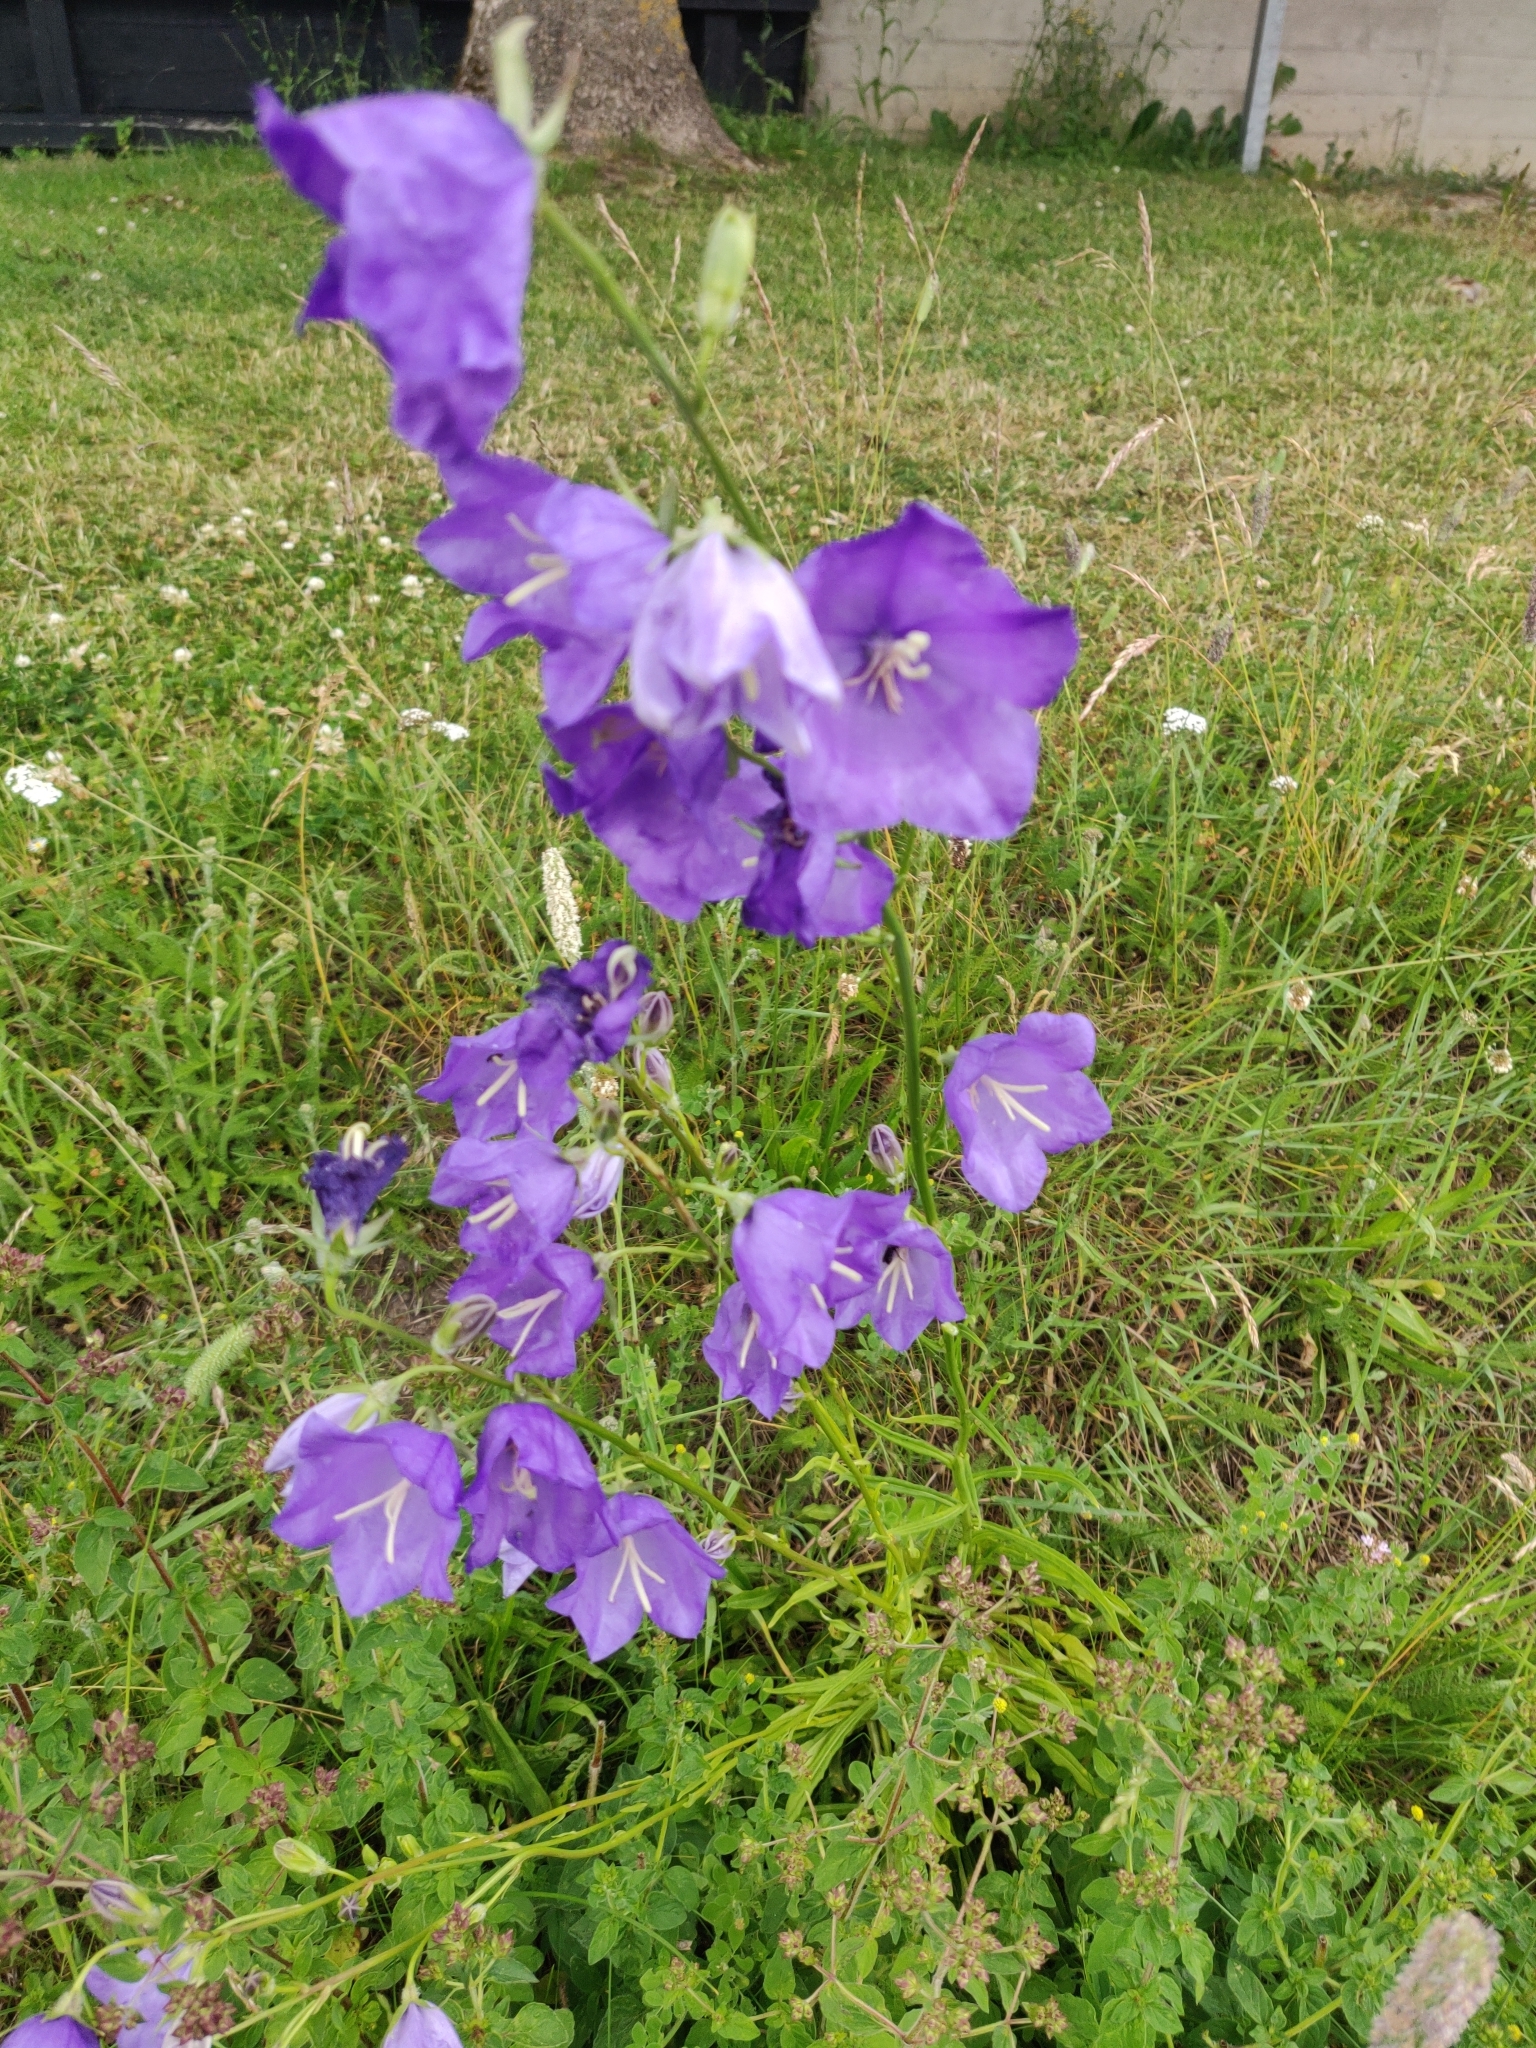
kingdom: Plantae
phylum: Tracheophyta
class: Magnoliopsida
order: Asterales
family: Campanulaceae
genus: Campanula
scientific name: Campanula persicifolia
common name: Peach-leaved bellflower
